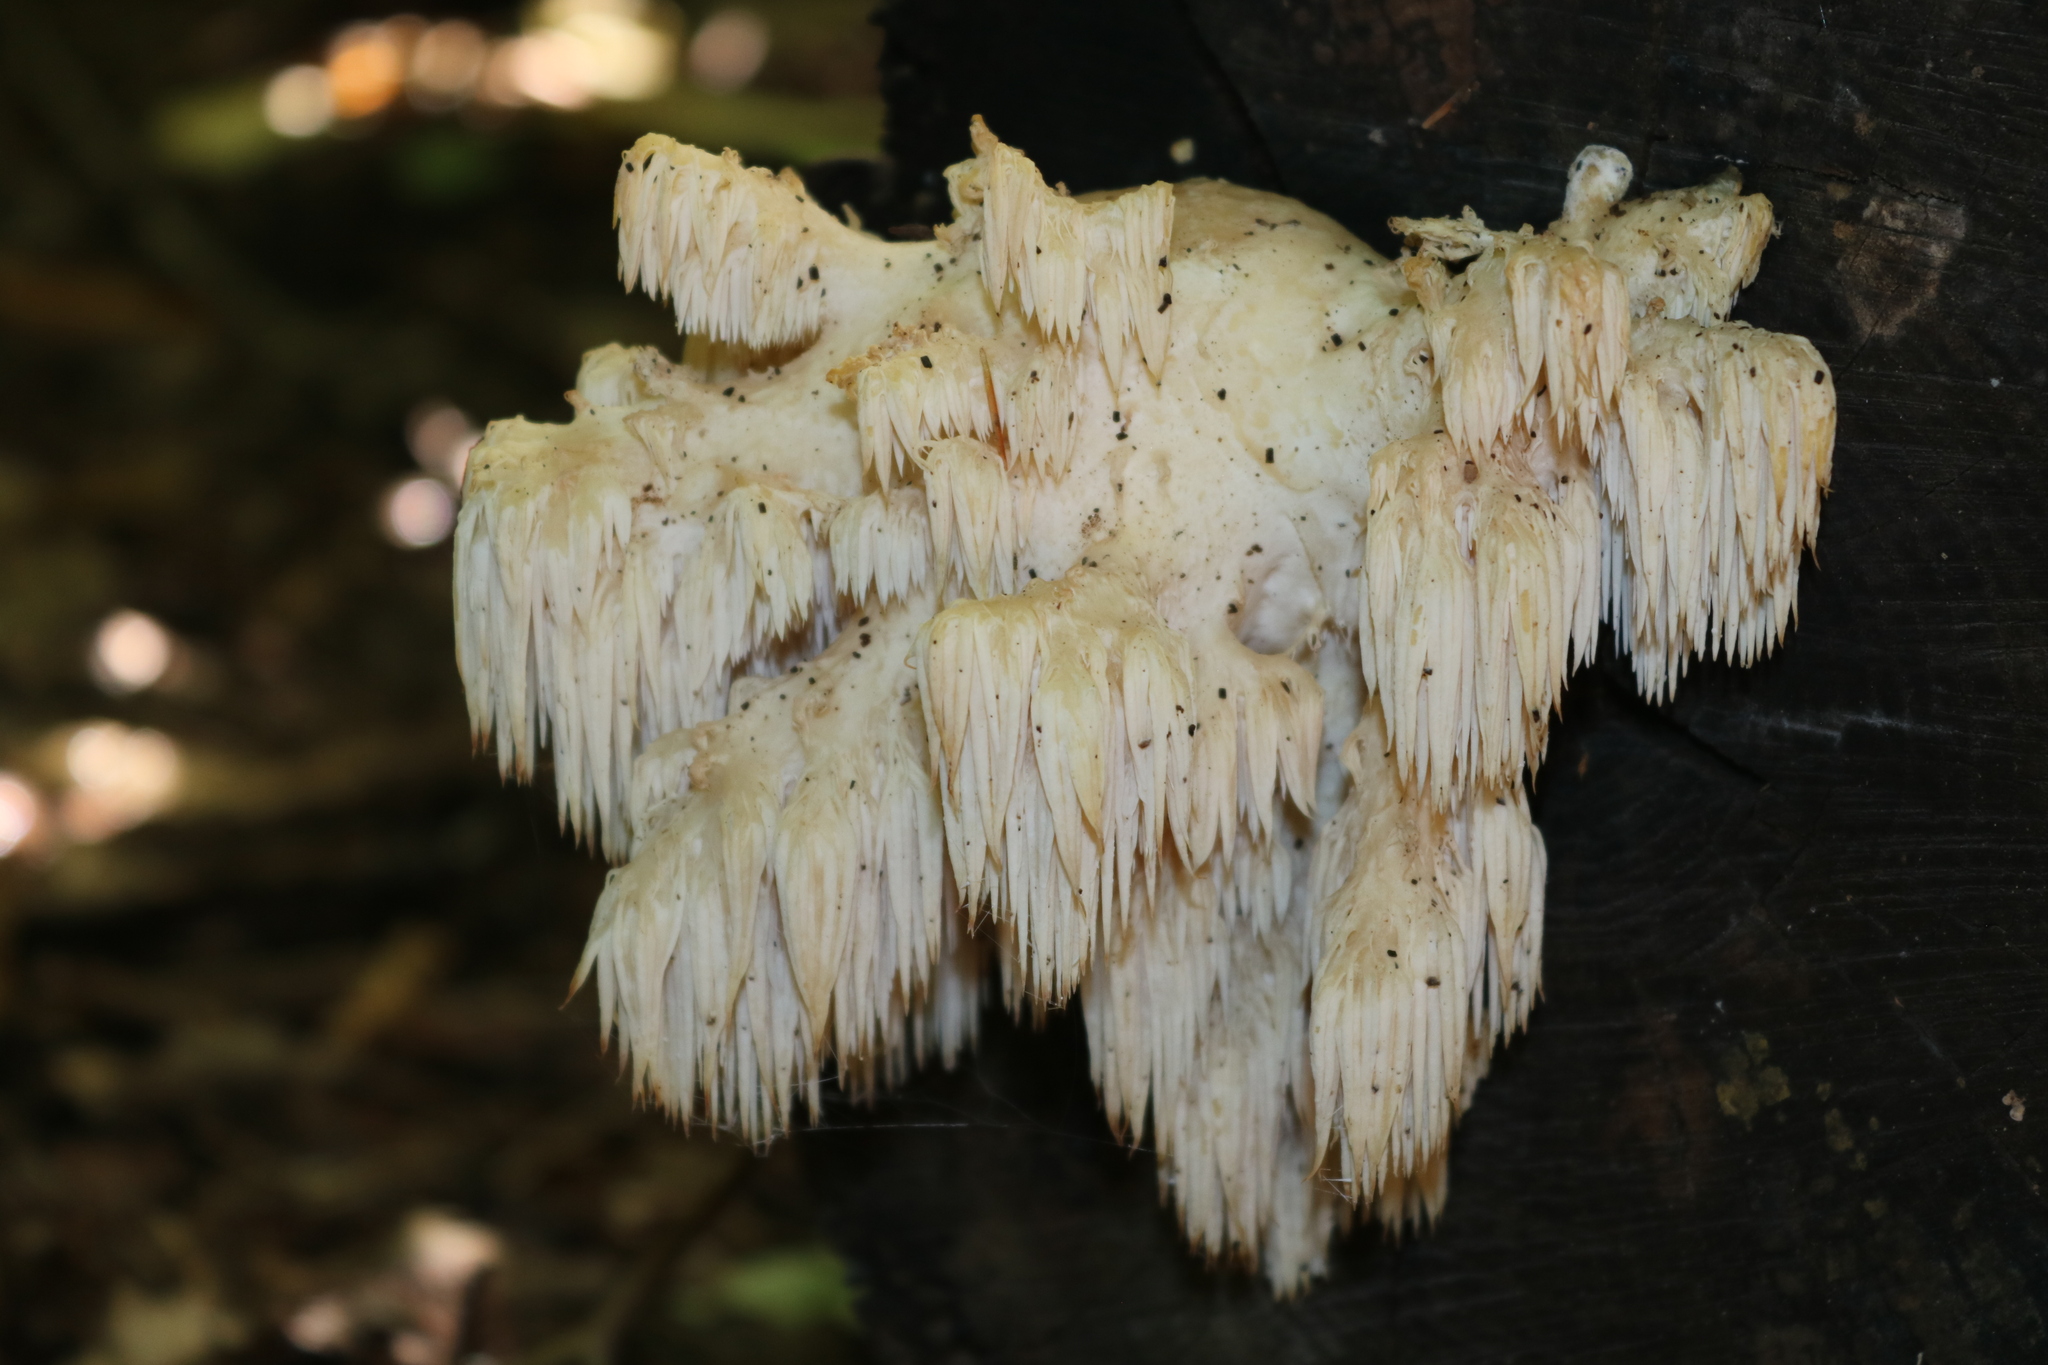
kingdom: Fungi
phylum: Basidiomycota
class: Agaricomycetes
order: Russulales
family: Hericiaceae
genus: Hericium
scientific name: Hericium americanum
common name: Bear's head tooth
